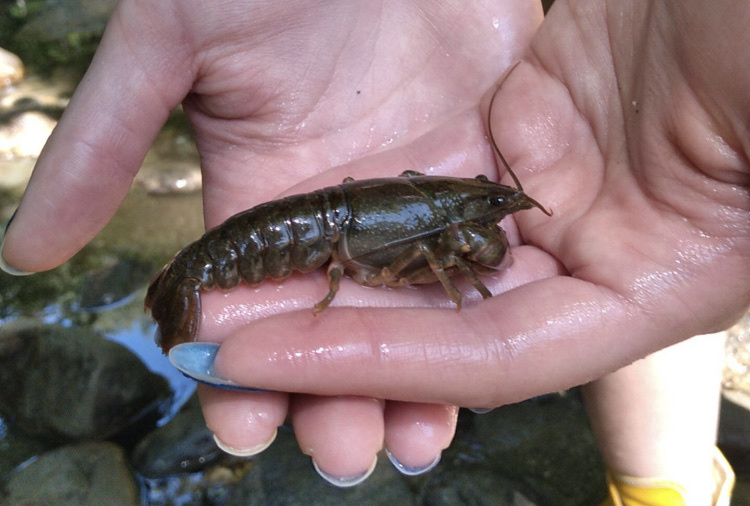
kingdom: Animalia
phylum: Arthropoda
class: Malacostraca
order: Decapoda
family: Cambaridae
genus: Cambarus
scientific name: Cambarus bartonii
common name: Appalachian brook crayfish
